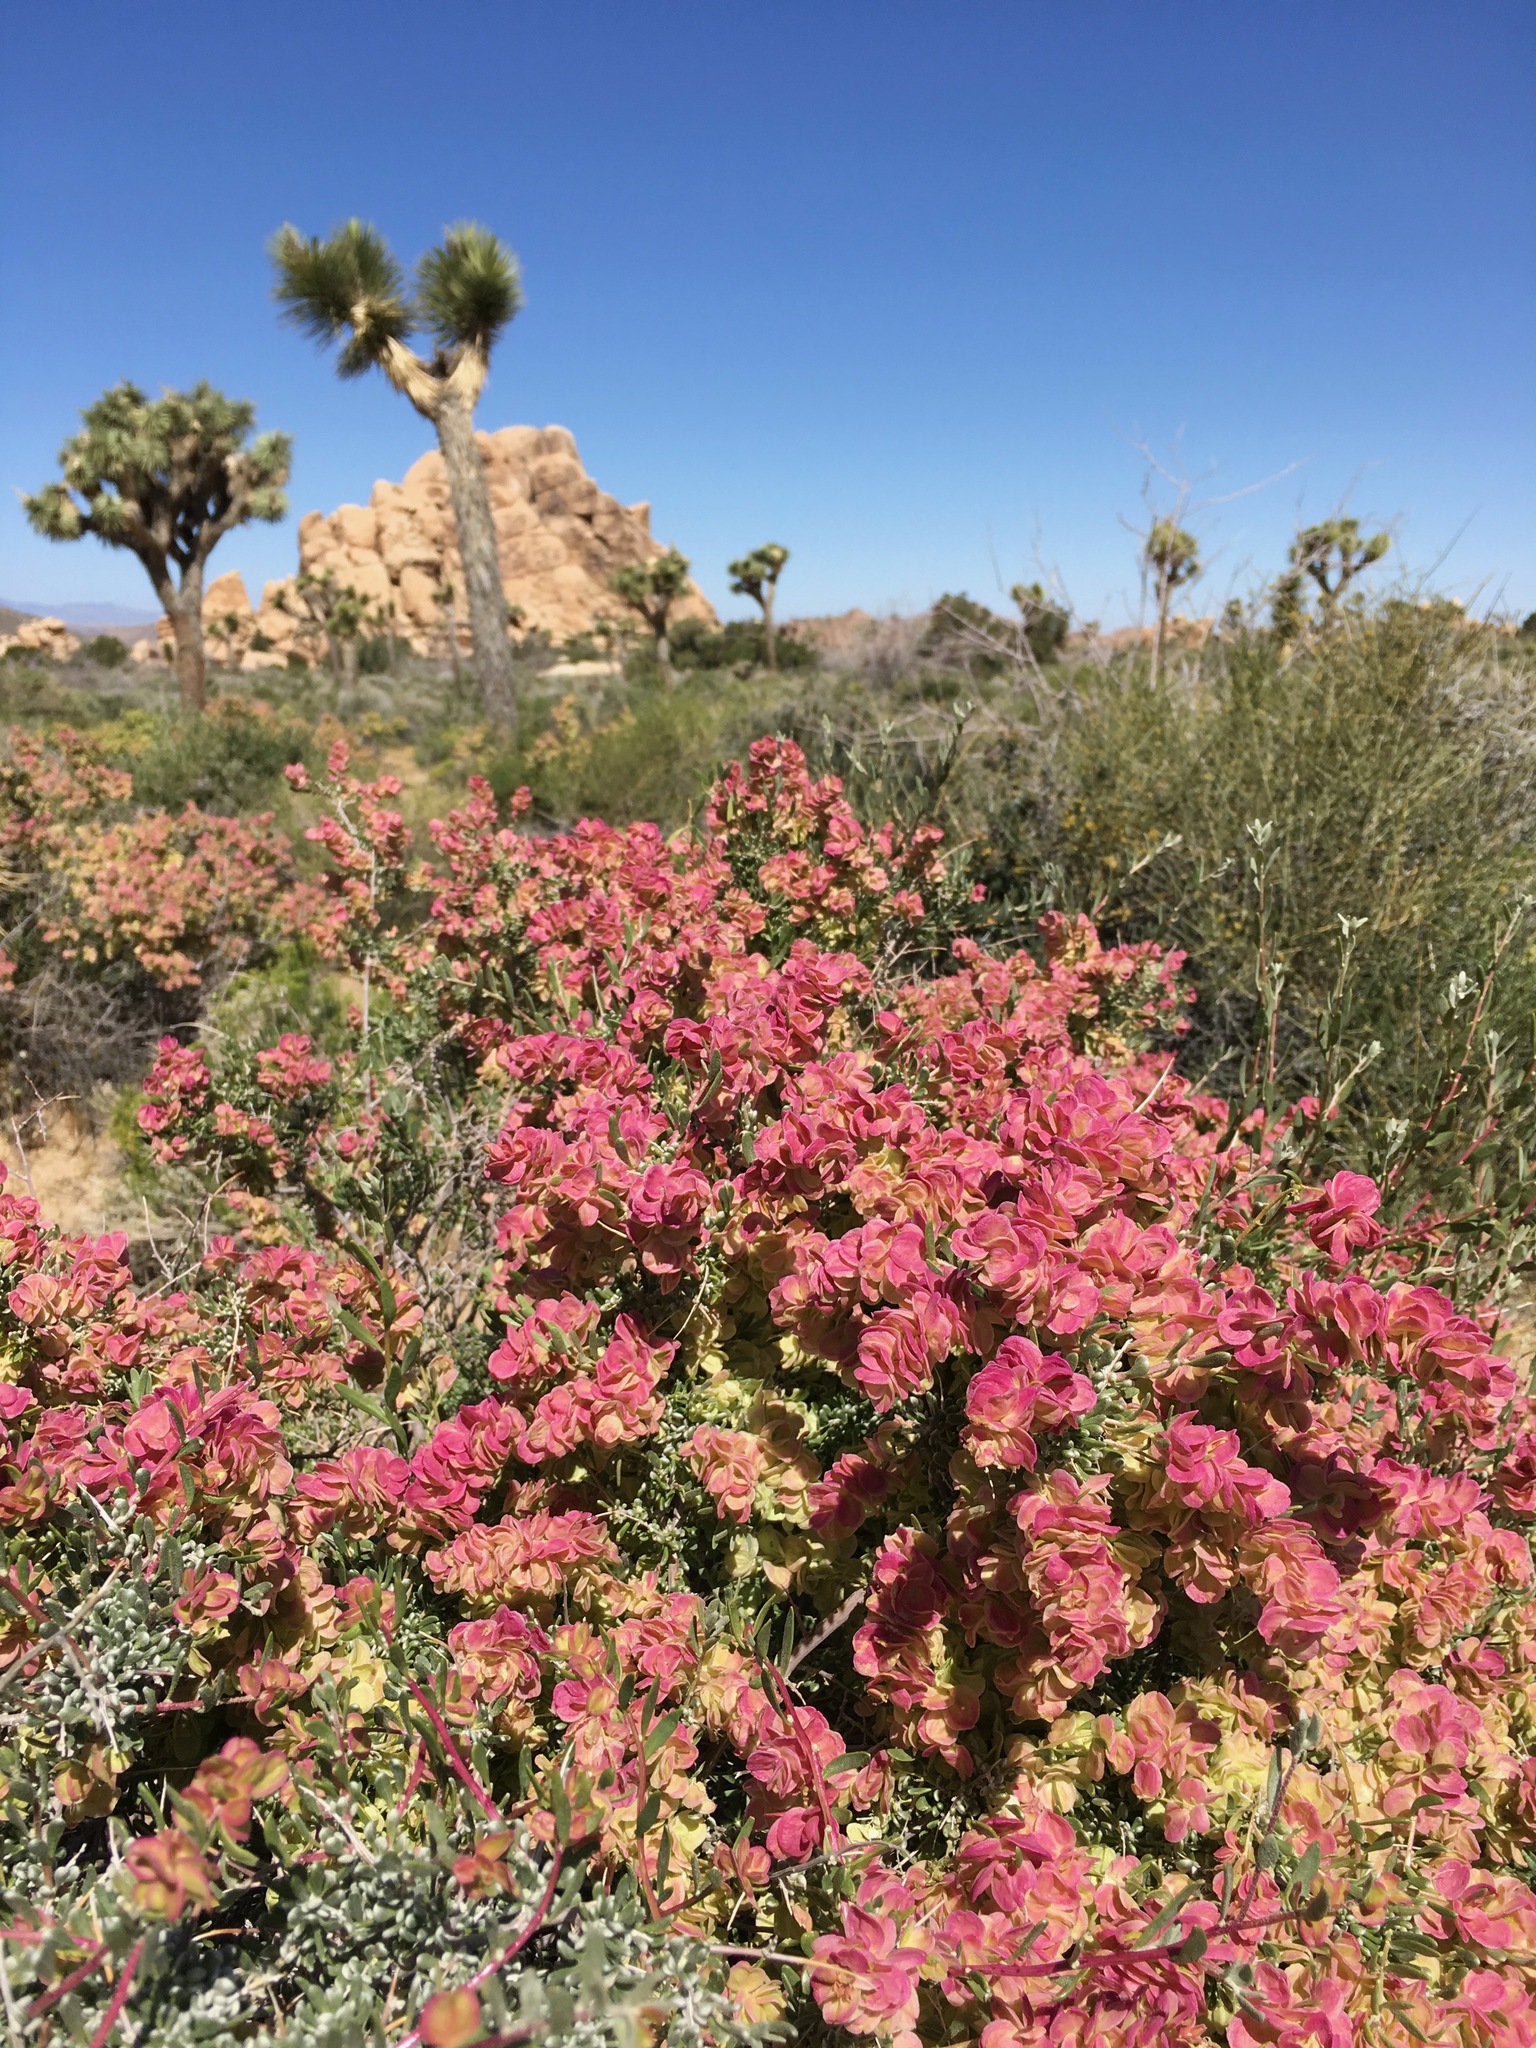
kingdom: Plantae
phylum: Tracheophyta
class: Magnoliopsida
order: Caryophyllales
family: Amaranthaceae
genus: Grayia
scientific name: Grayia spinosa
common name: Spiny hopsage
